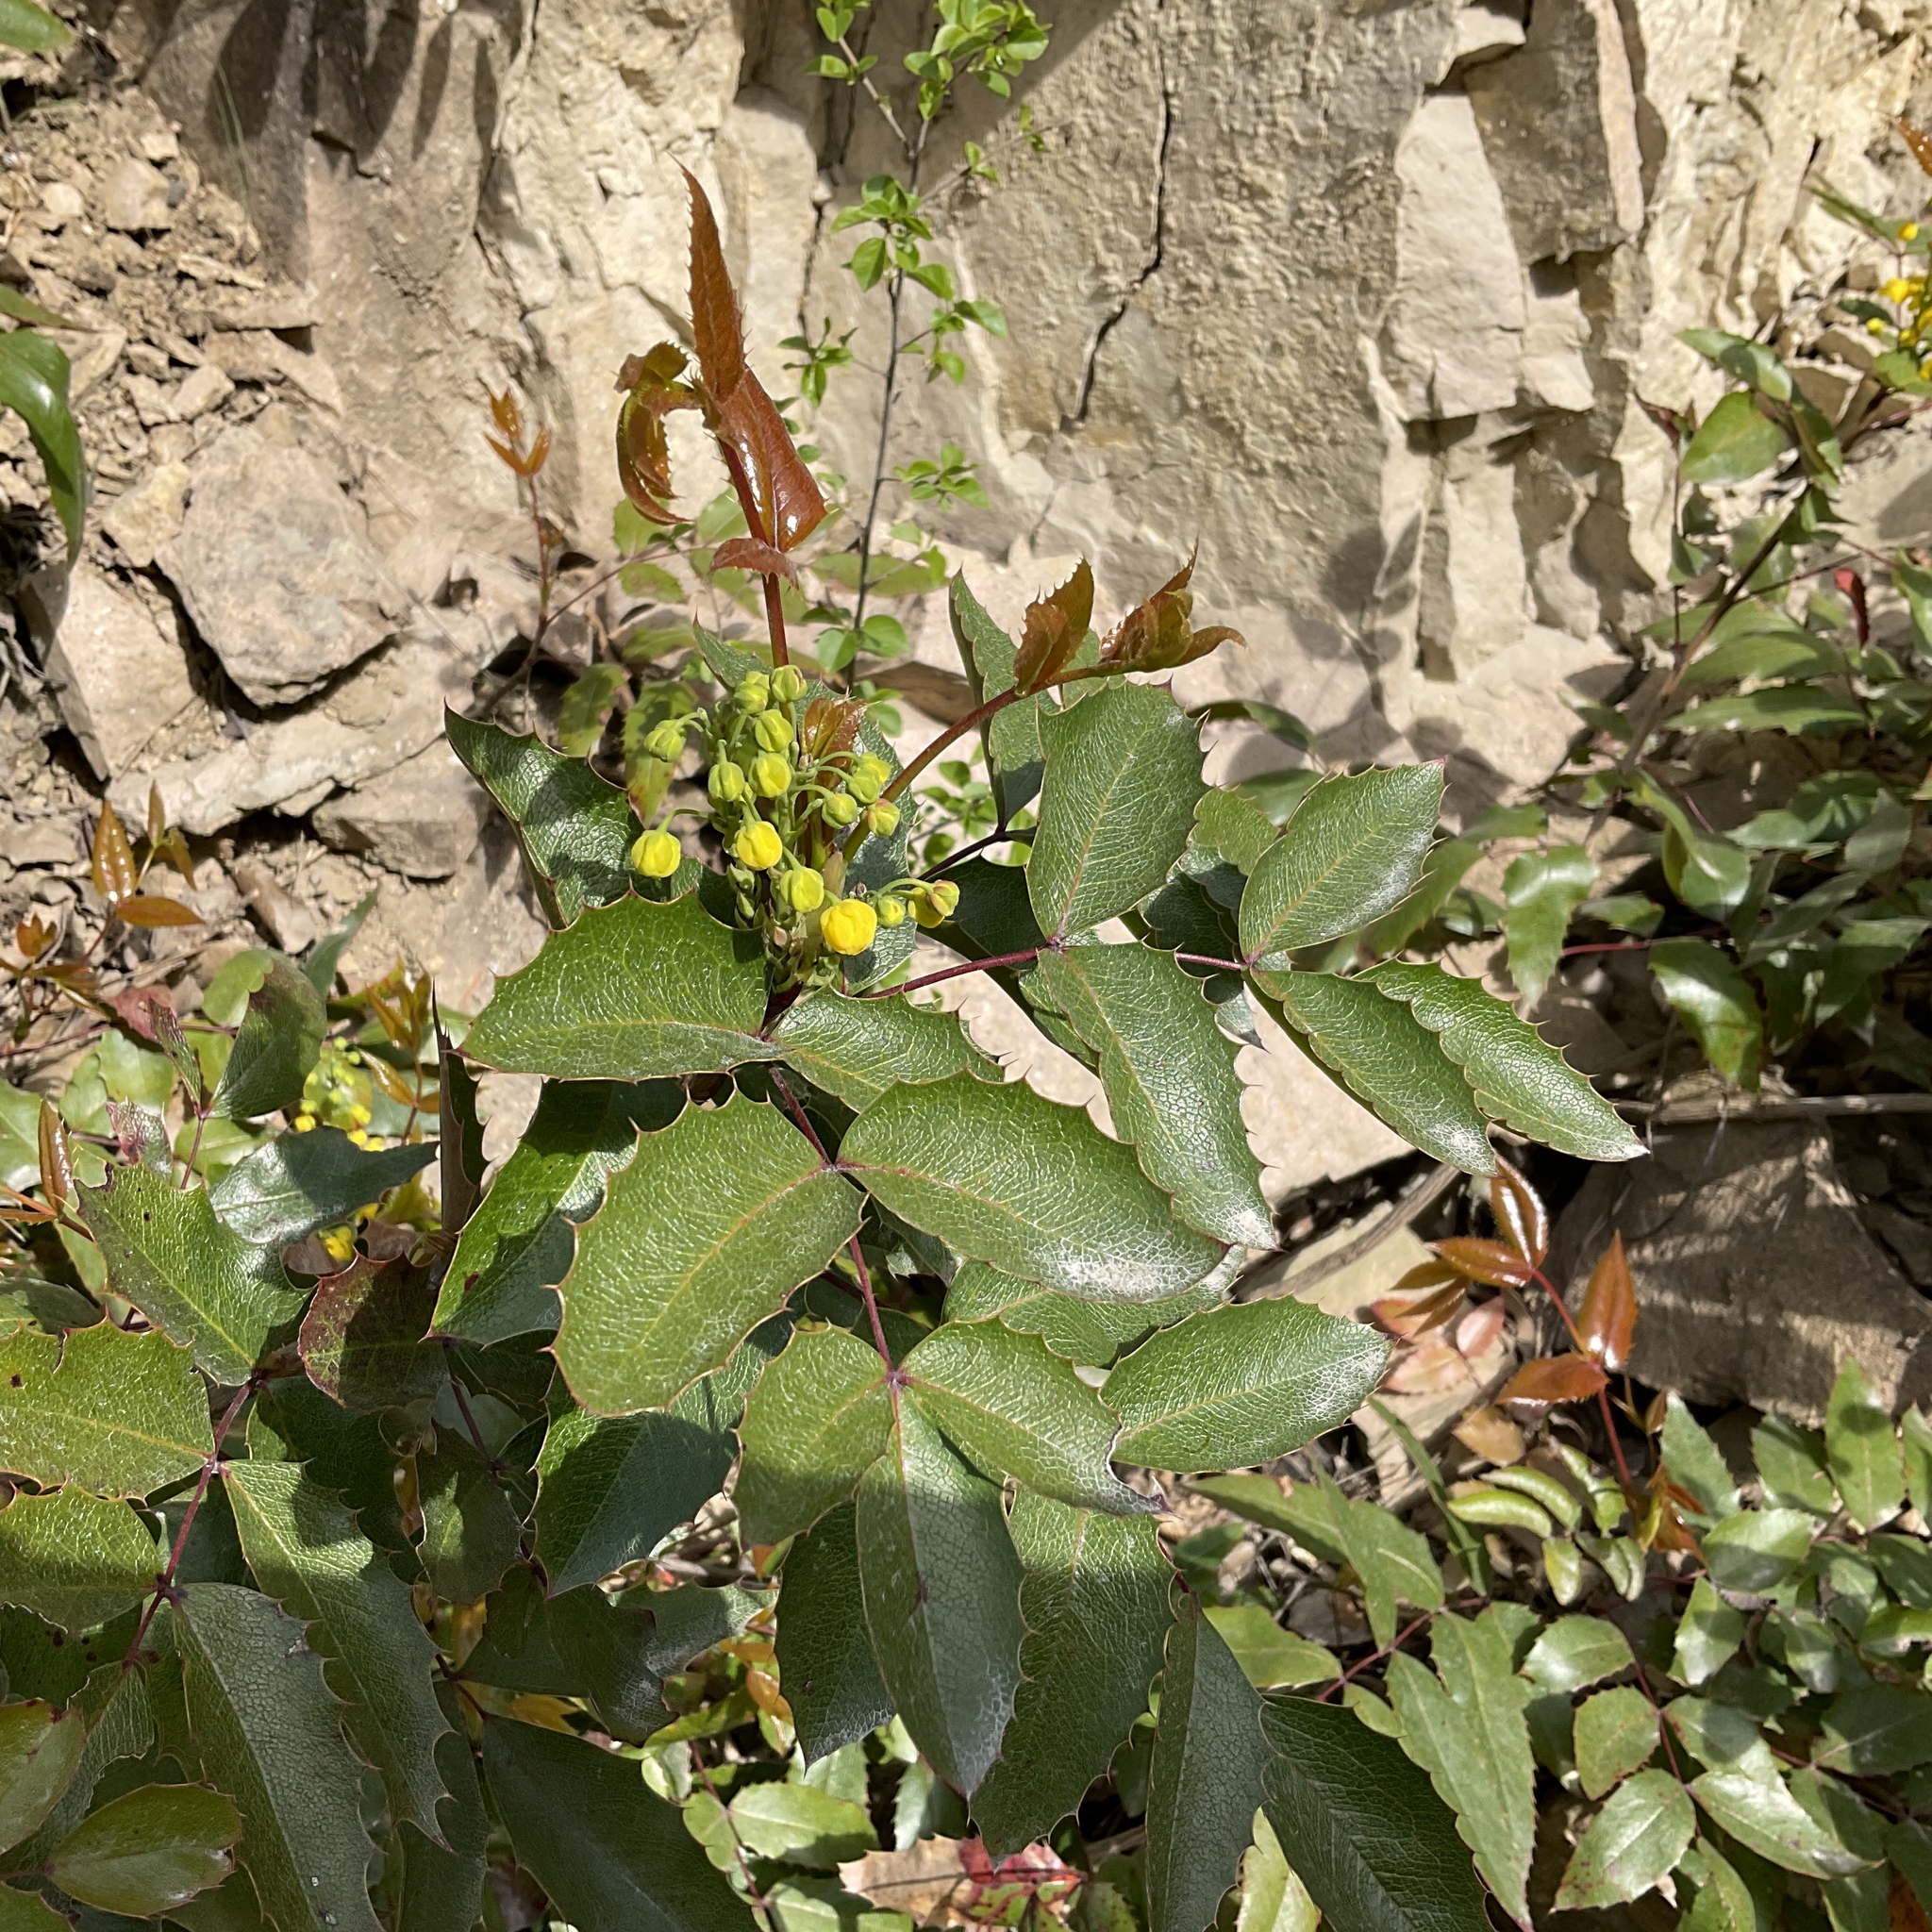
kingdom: Plantae
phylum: Tracheophyta
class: Magnoliopsida
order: Ranunculales
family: Berberidaceae
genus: Mahonia
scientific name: Mahonia aquifolium
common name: Oregon-grape
